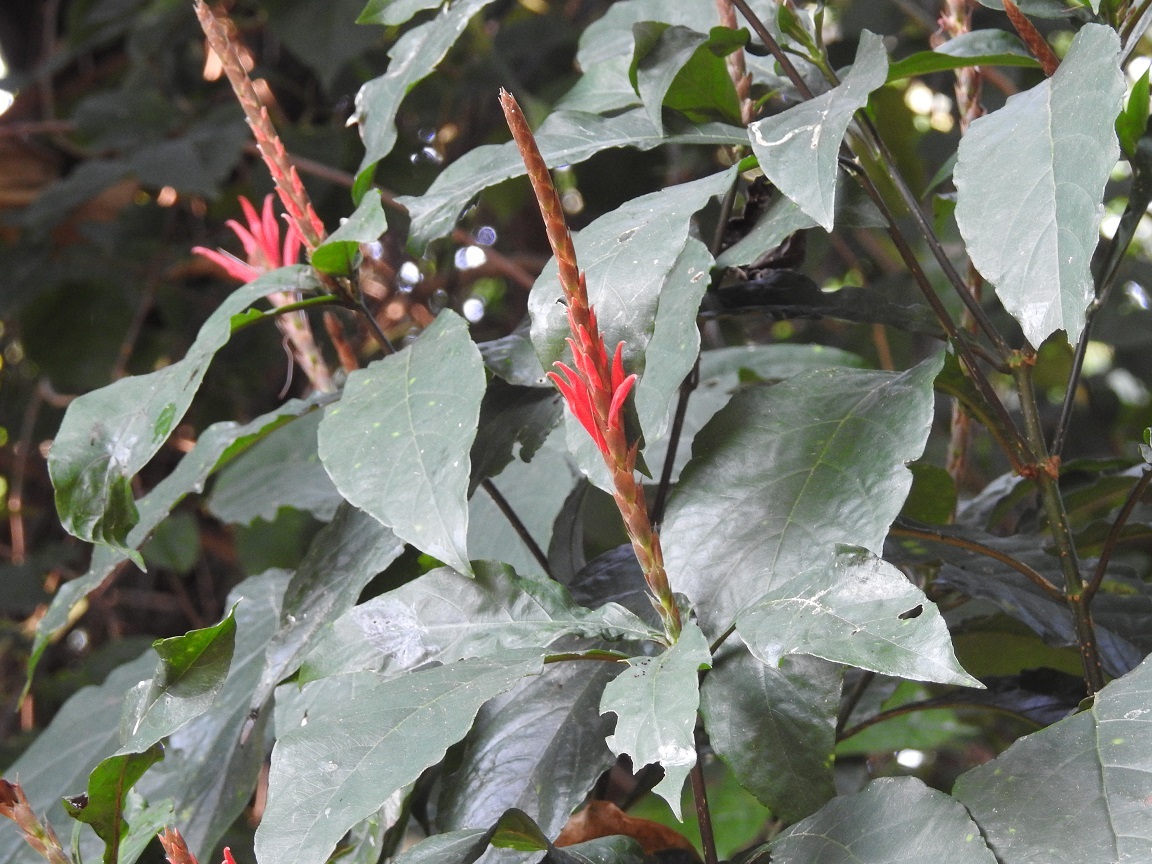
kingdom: Plantae
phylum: Tracheophyta
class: Magnoliopsida
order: Lamiales
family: Acanthaceae
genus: Aphelandra
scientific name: Aphelandra scabra
